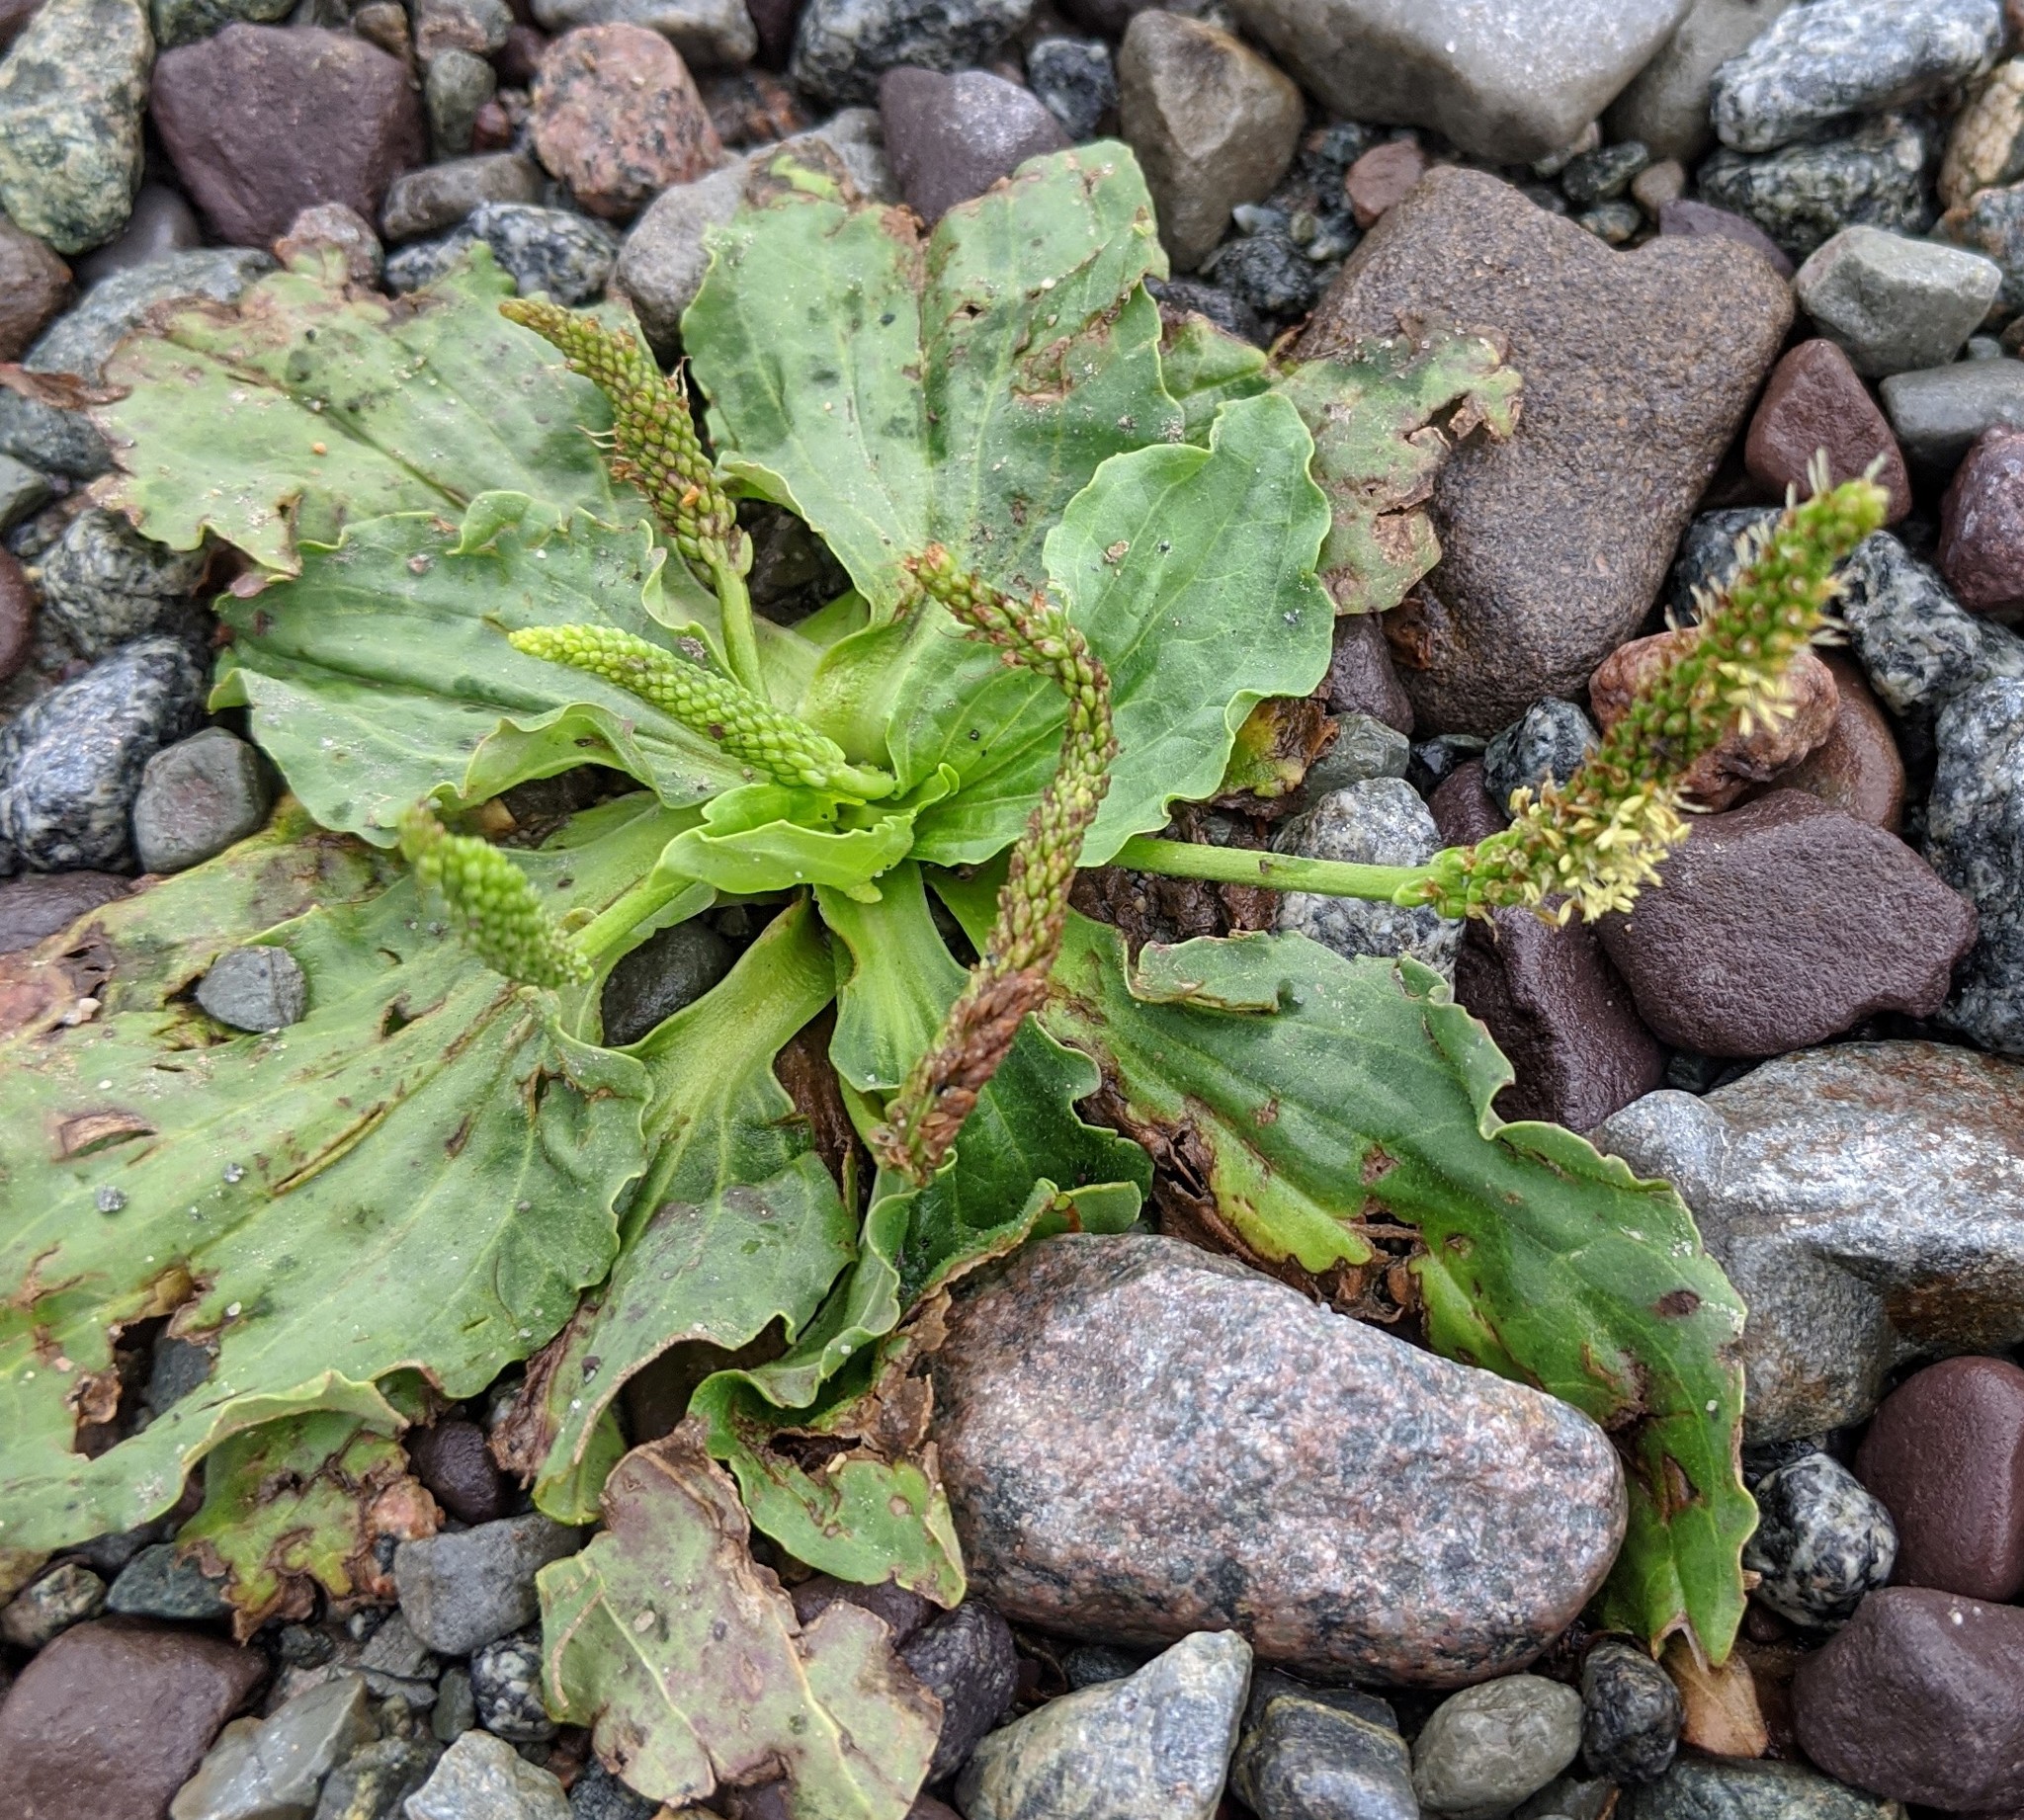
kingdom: Plantae
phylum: Tracheophyta
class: Magnoliopsida
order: Lamiales
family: Plantaginaceae
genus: Plantago
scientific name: Plantago major
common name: Common plantain
